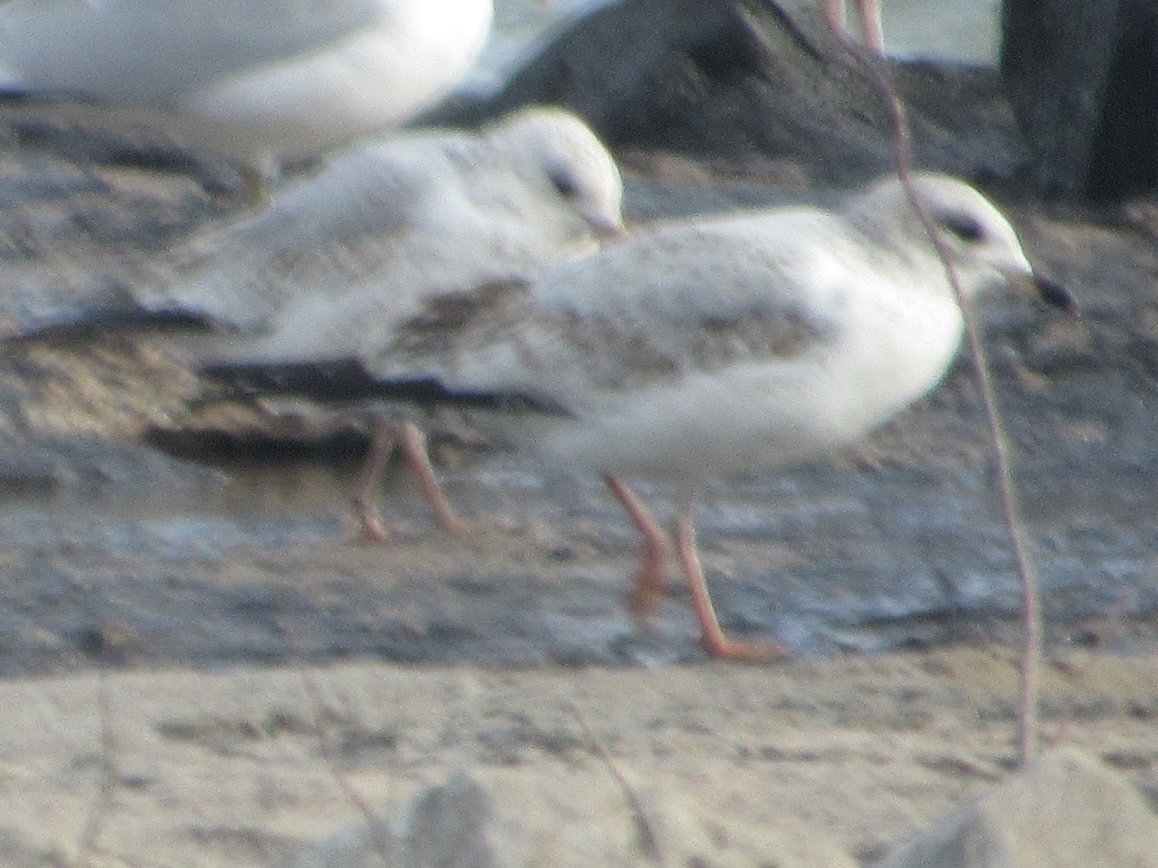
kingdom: Animalia
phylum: Chordata
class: Aves
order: Charadriiformes
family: Laridae
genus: Larus
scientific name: Larus delawarensis
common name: Ring-billed gull
